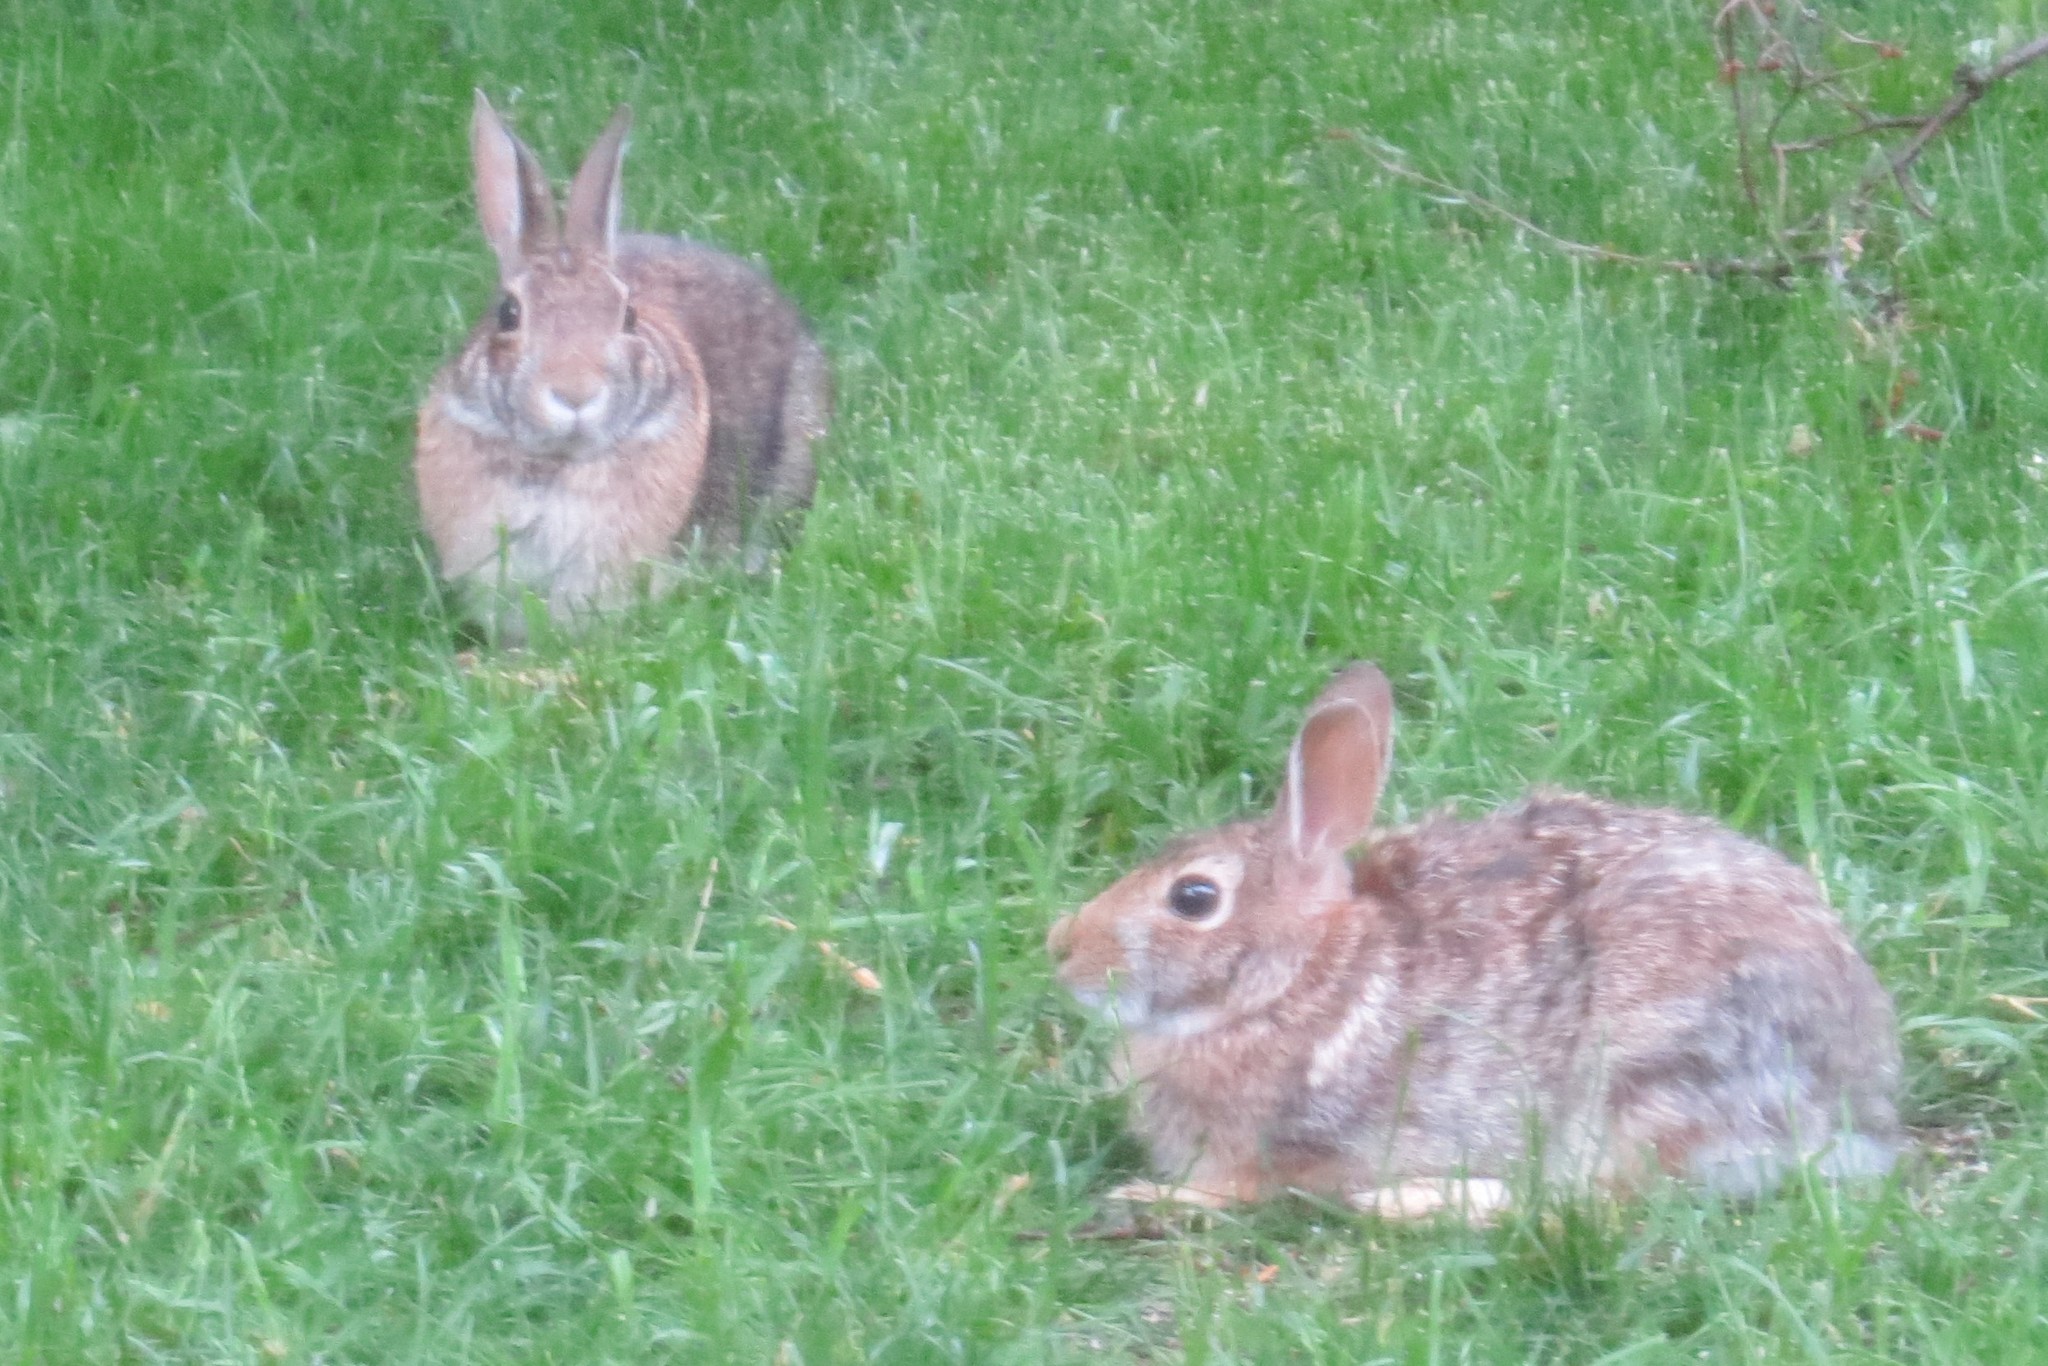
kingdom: Animalia
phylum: Chordata
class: Mammalia
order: Lagomorpha
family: Leporidae
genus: Sylvilagus
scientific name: Sylvilagus floridanus
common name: Eastern cottontail
